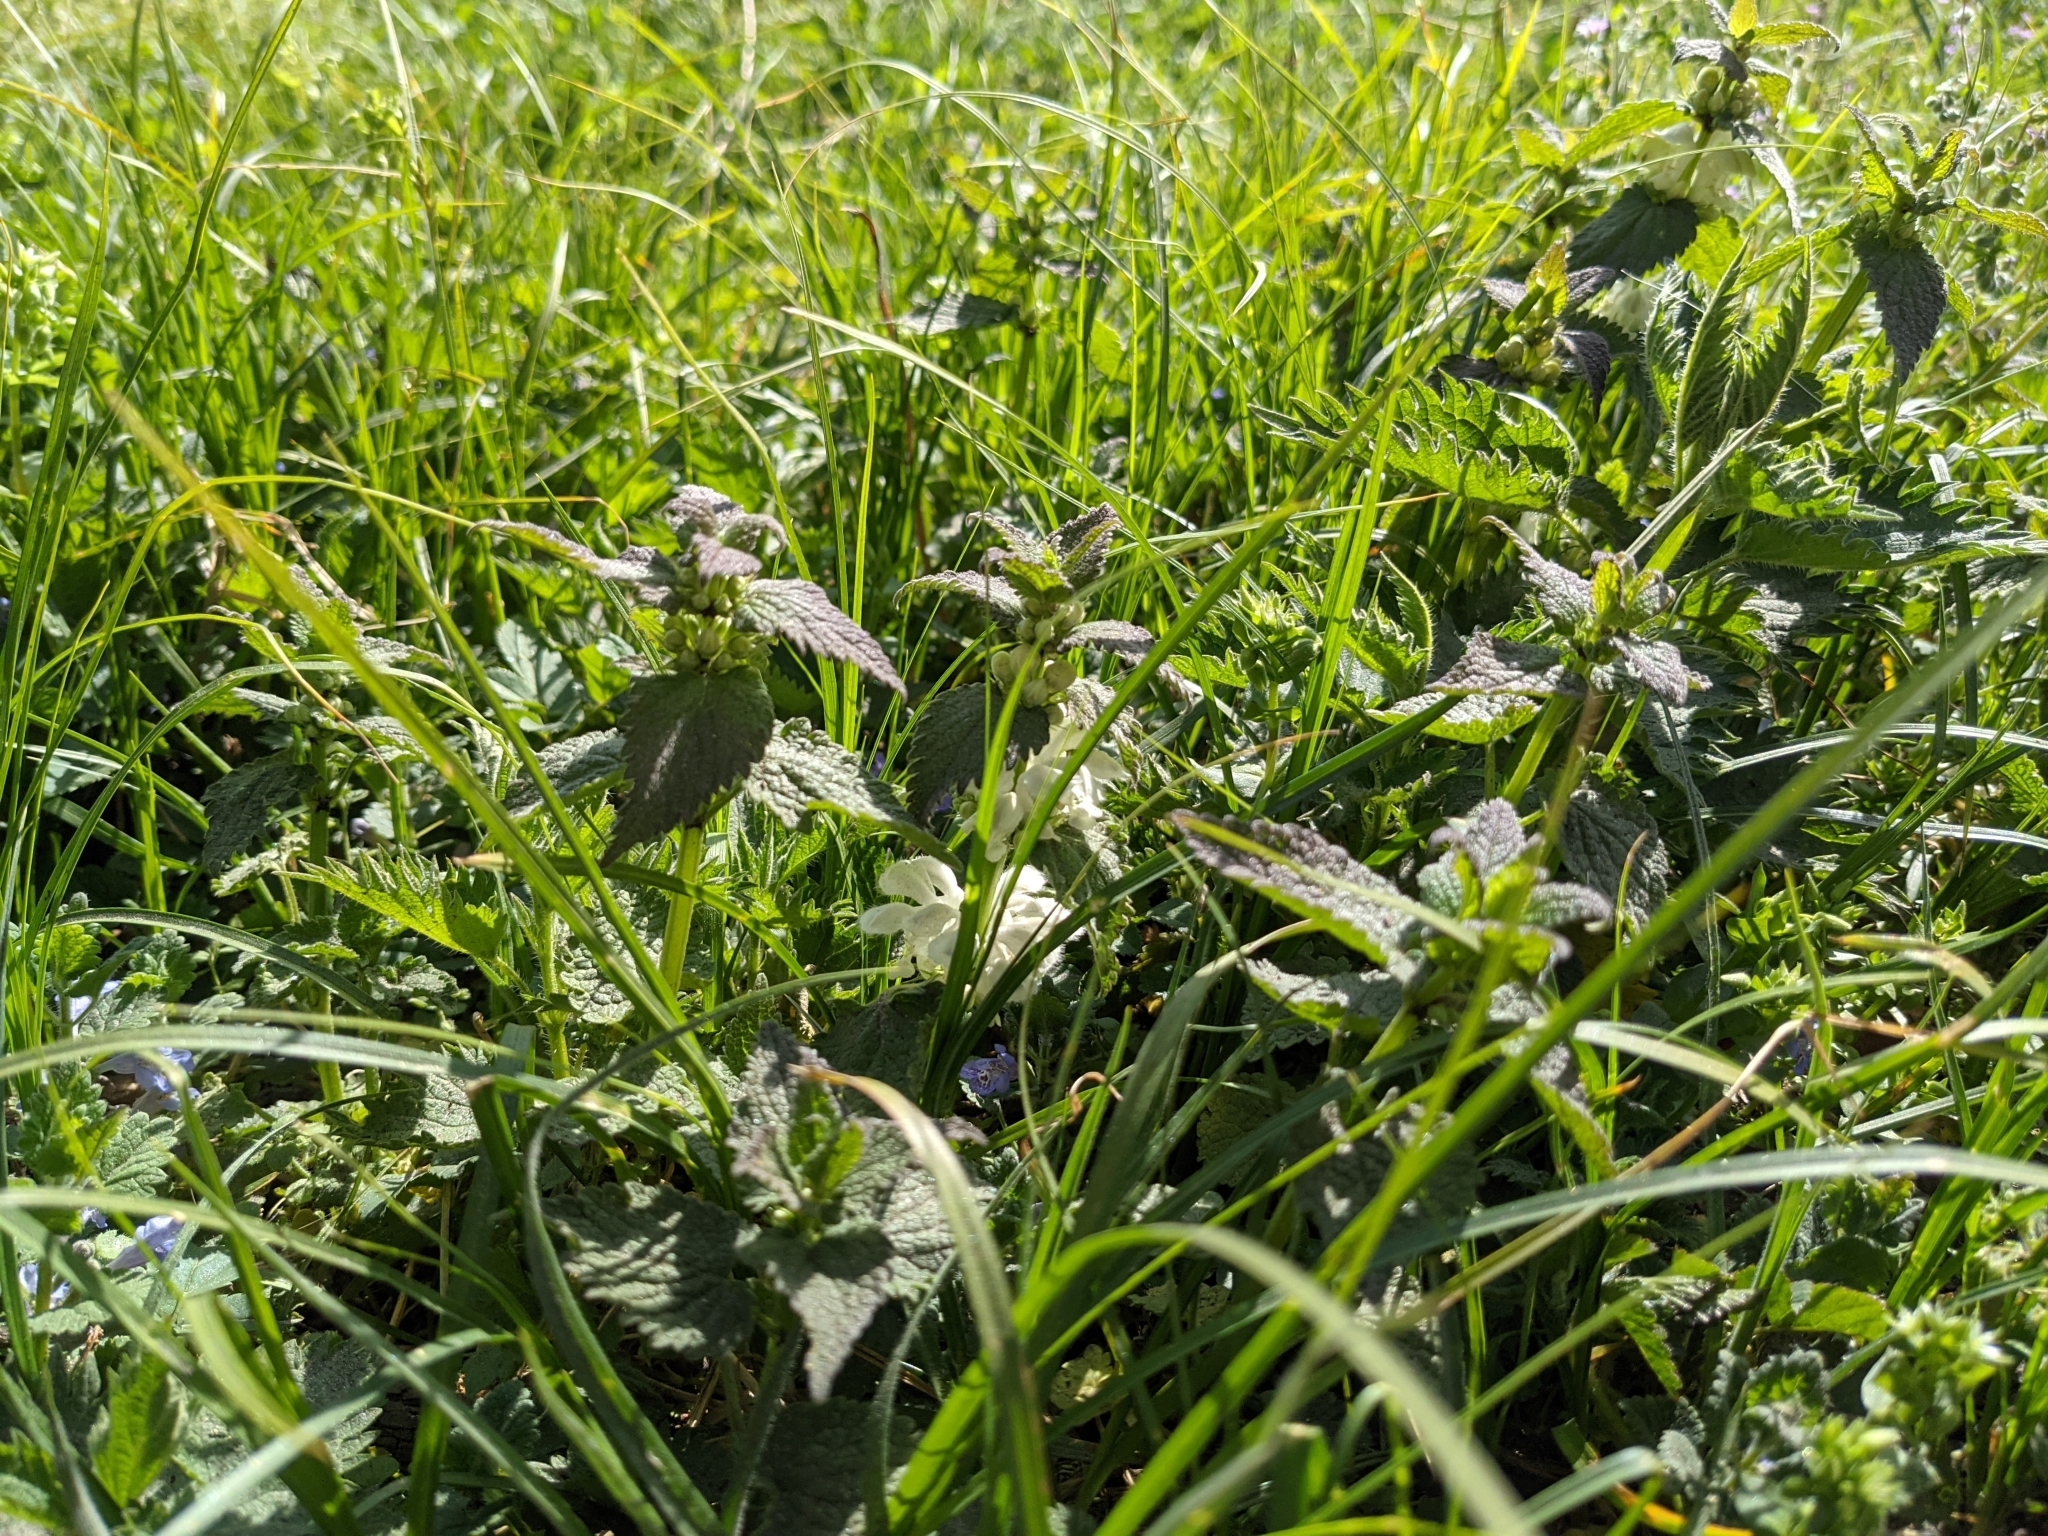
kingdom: Plantae
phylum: Tracheophyta
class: Magnoliopsida
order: Lamiales
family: Lamiaceae
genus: Lamium
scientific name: Lamium album
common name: White dead-nettle
